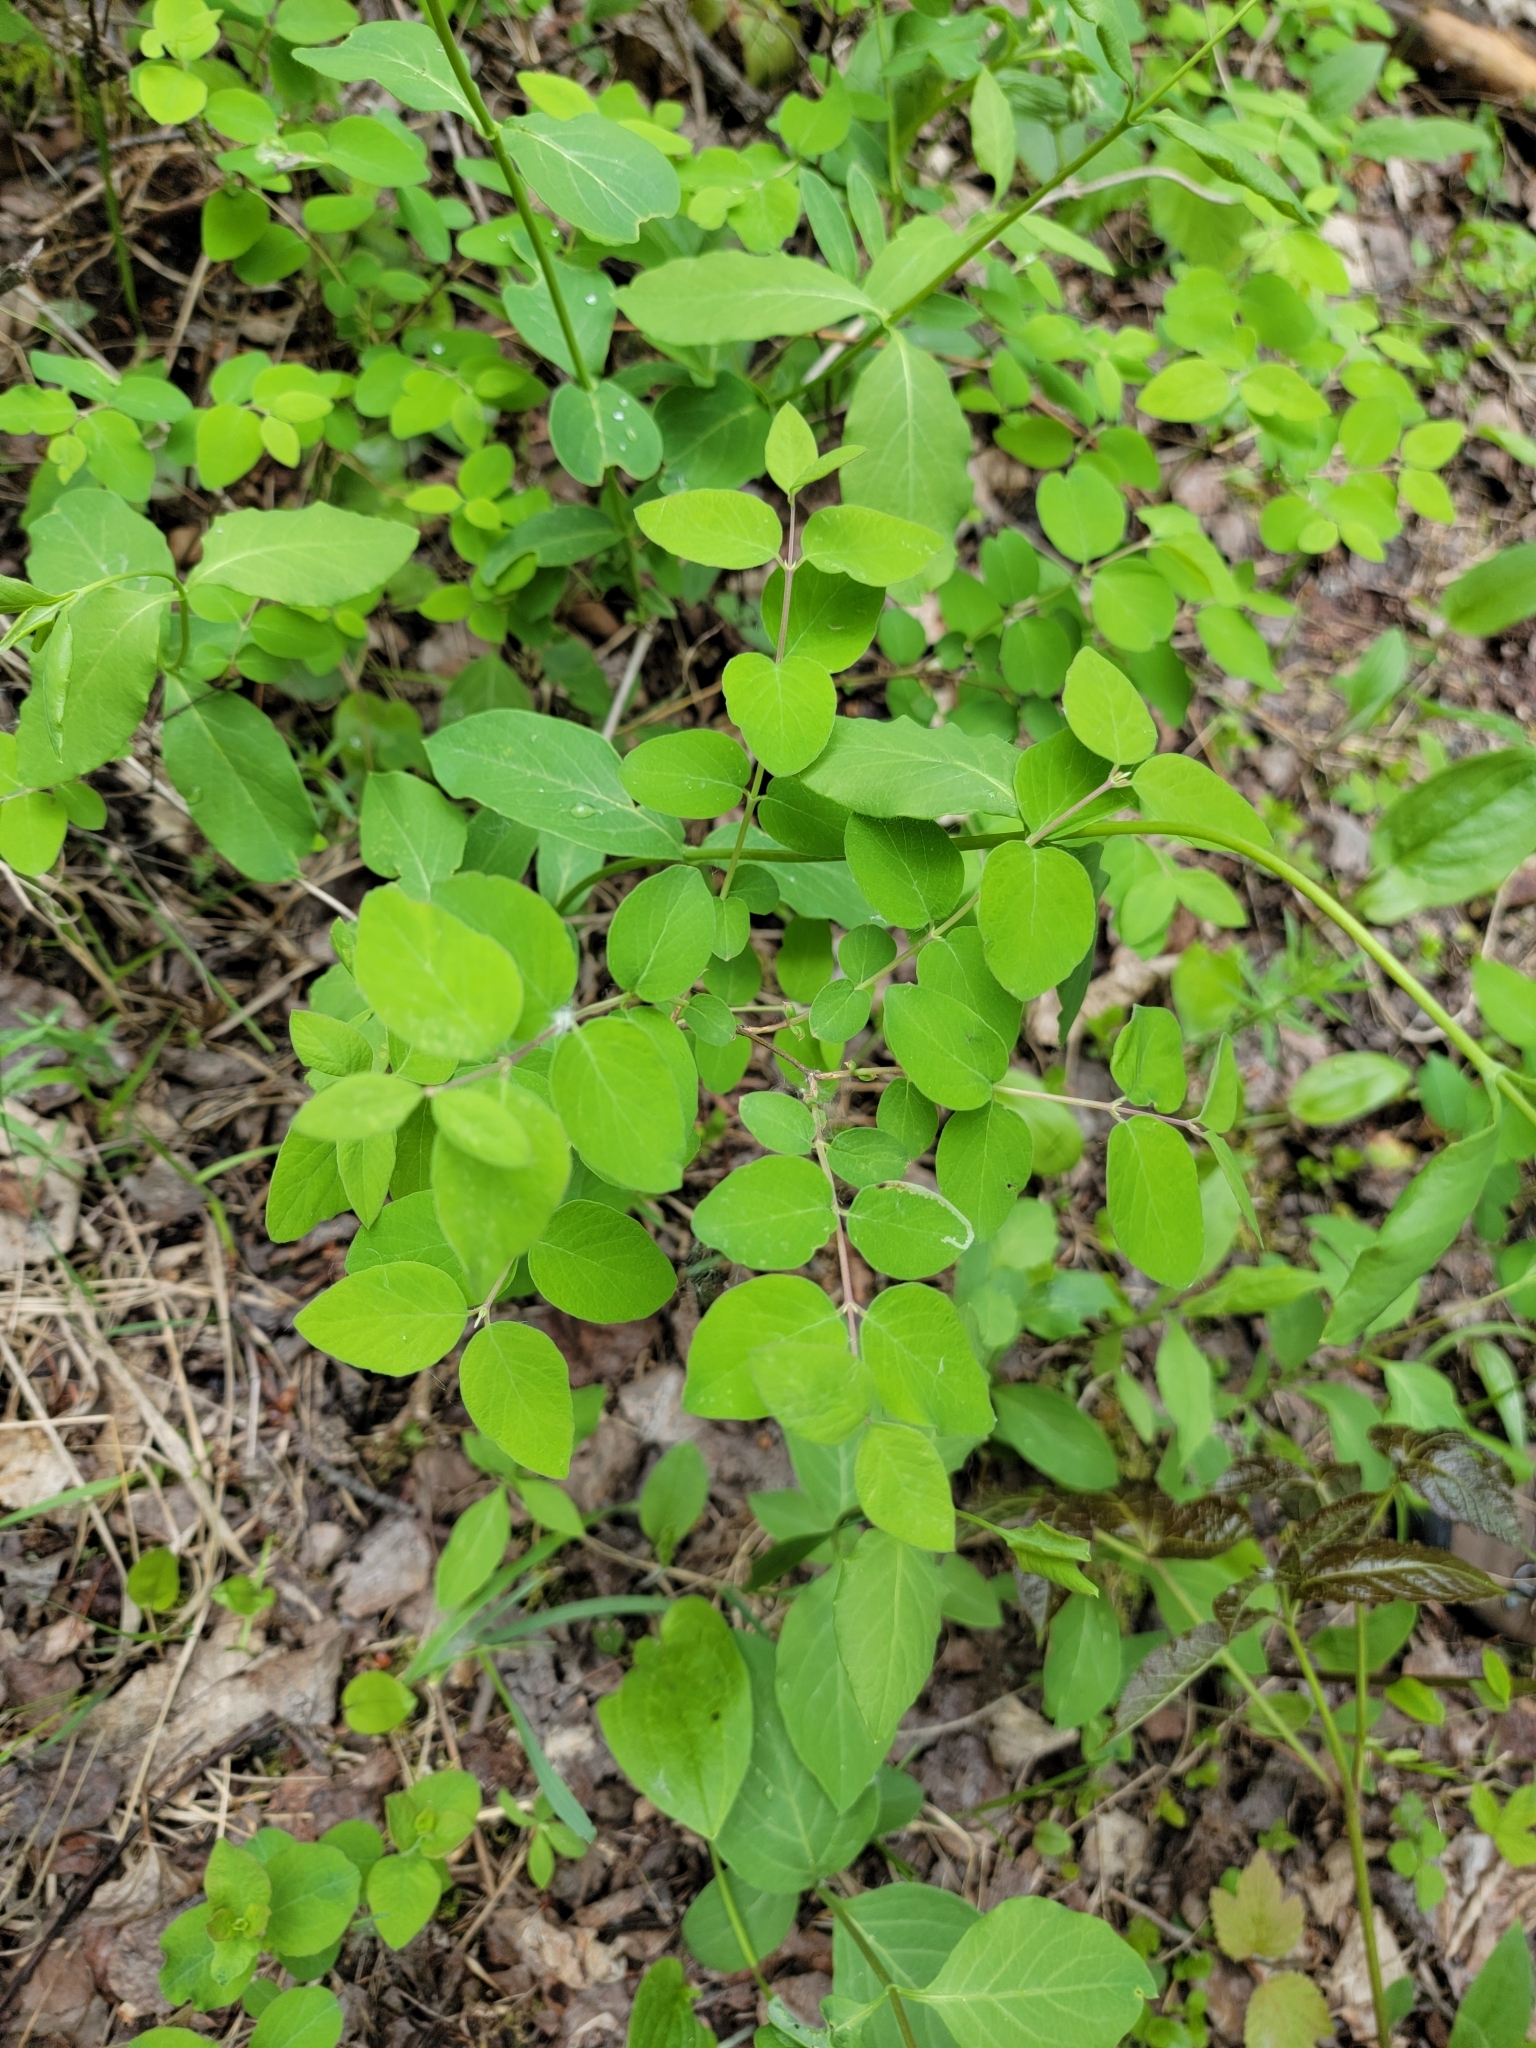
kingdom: Plantae
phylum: Tracheophyta
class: Magnoliopsida
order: Dipsacales
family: Caprifoliaceae
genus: Symphoricarpos
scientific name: Symphoricarpos albus
